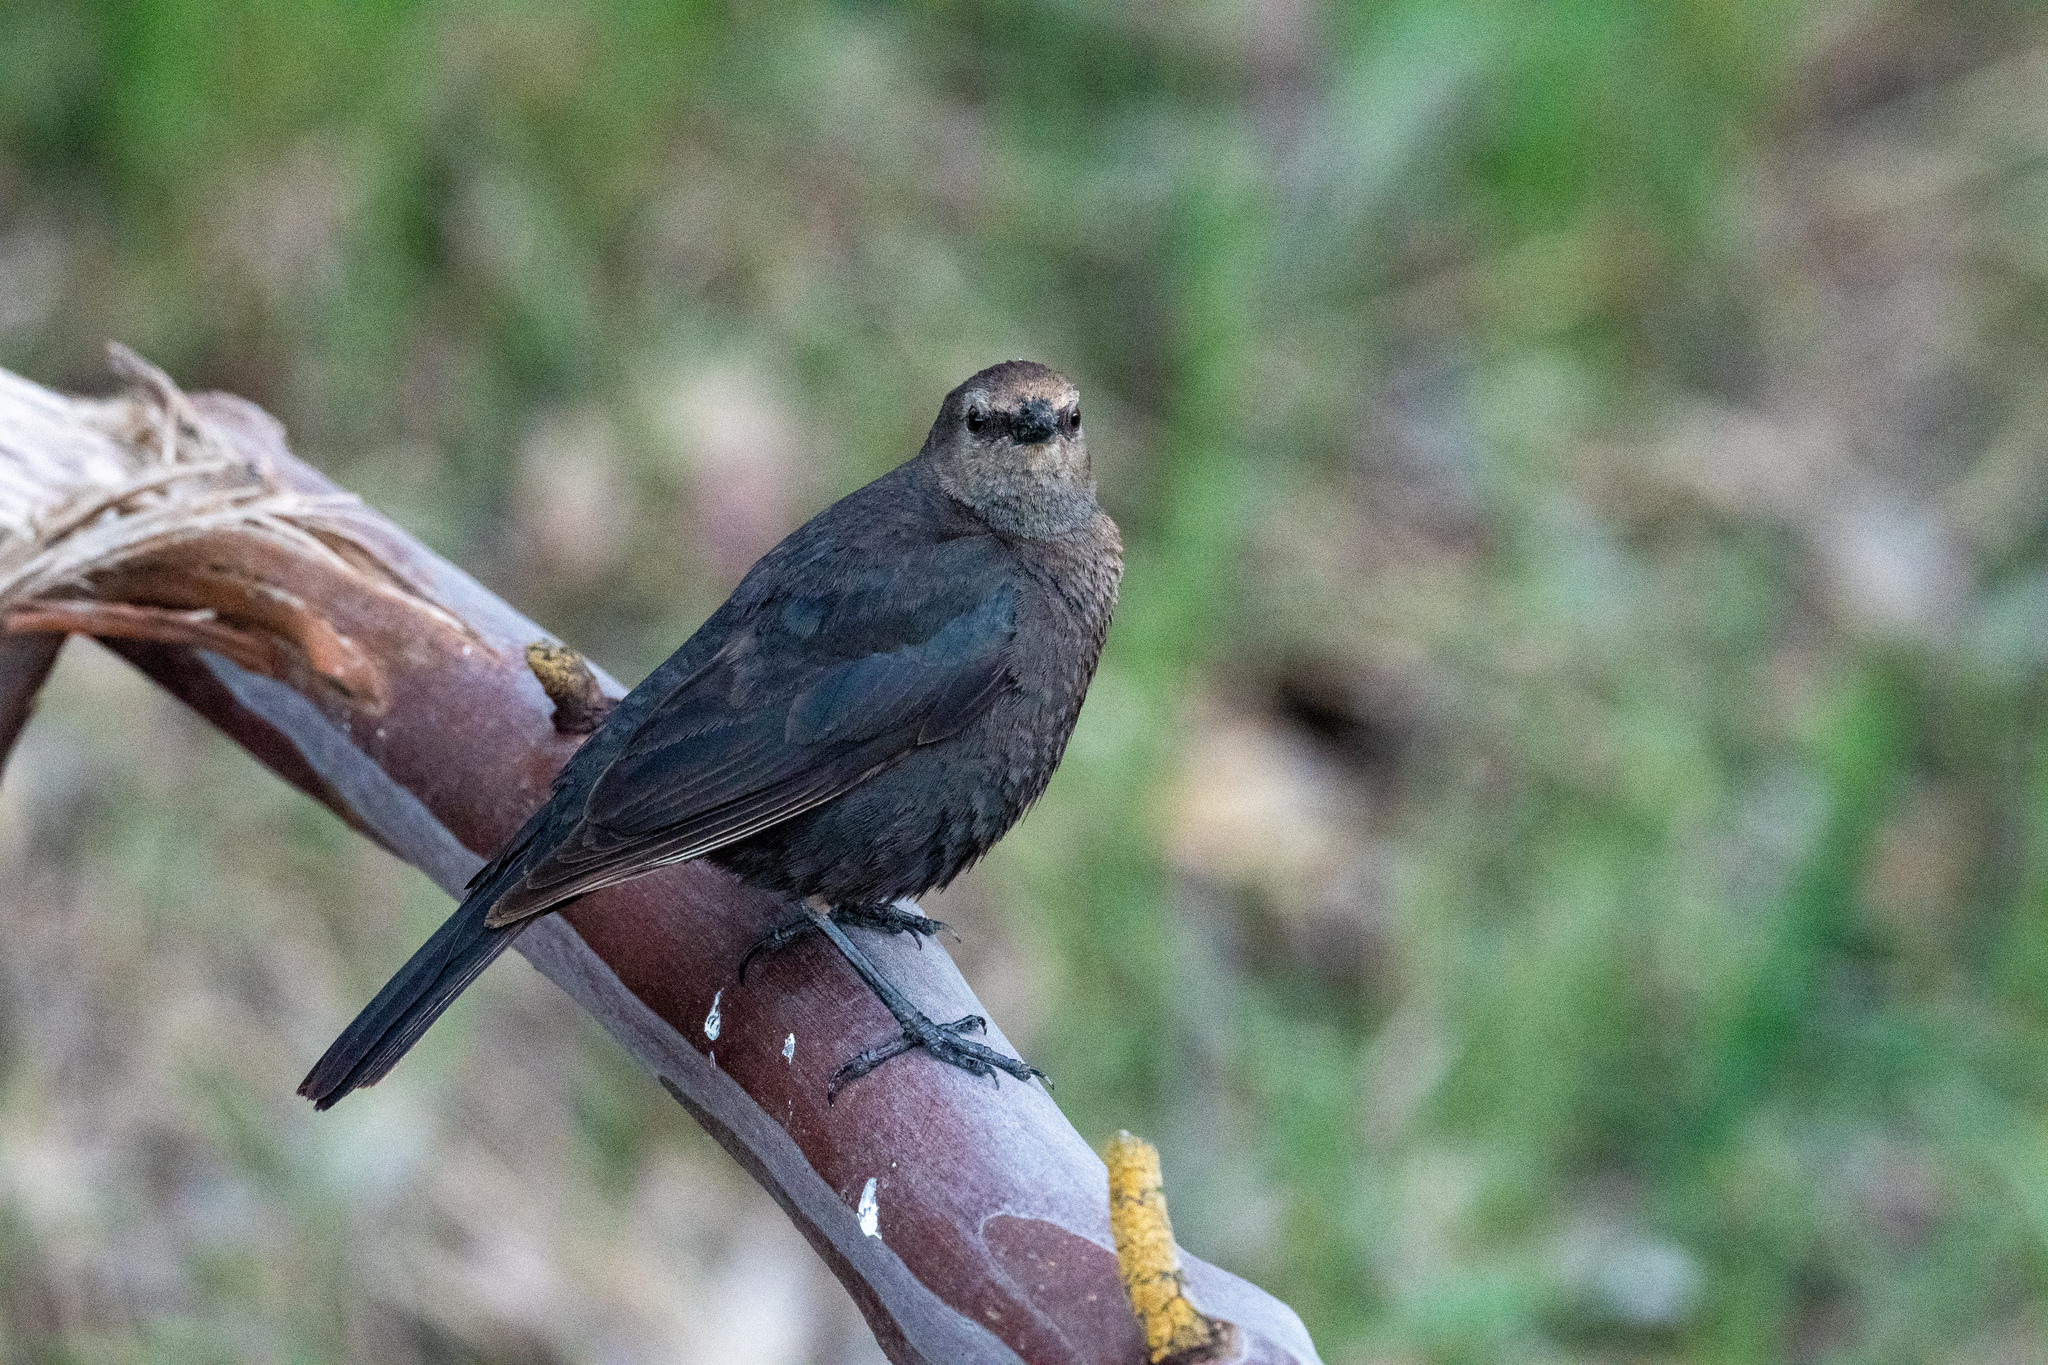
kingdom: Animalia
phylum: Chordata
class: Aves
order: Passeriformes
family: Icteridae
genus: Euphagus
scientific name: Euphagus cyanocephalus
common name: Brewer's blackbird
